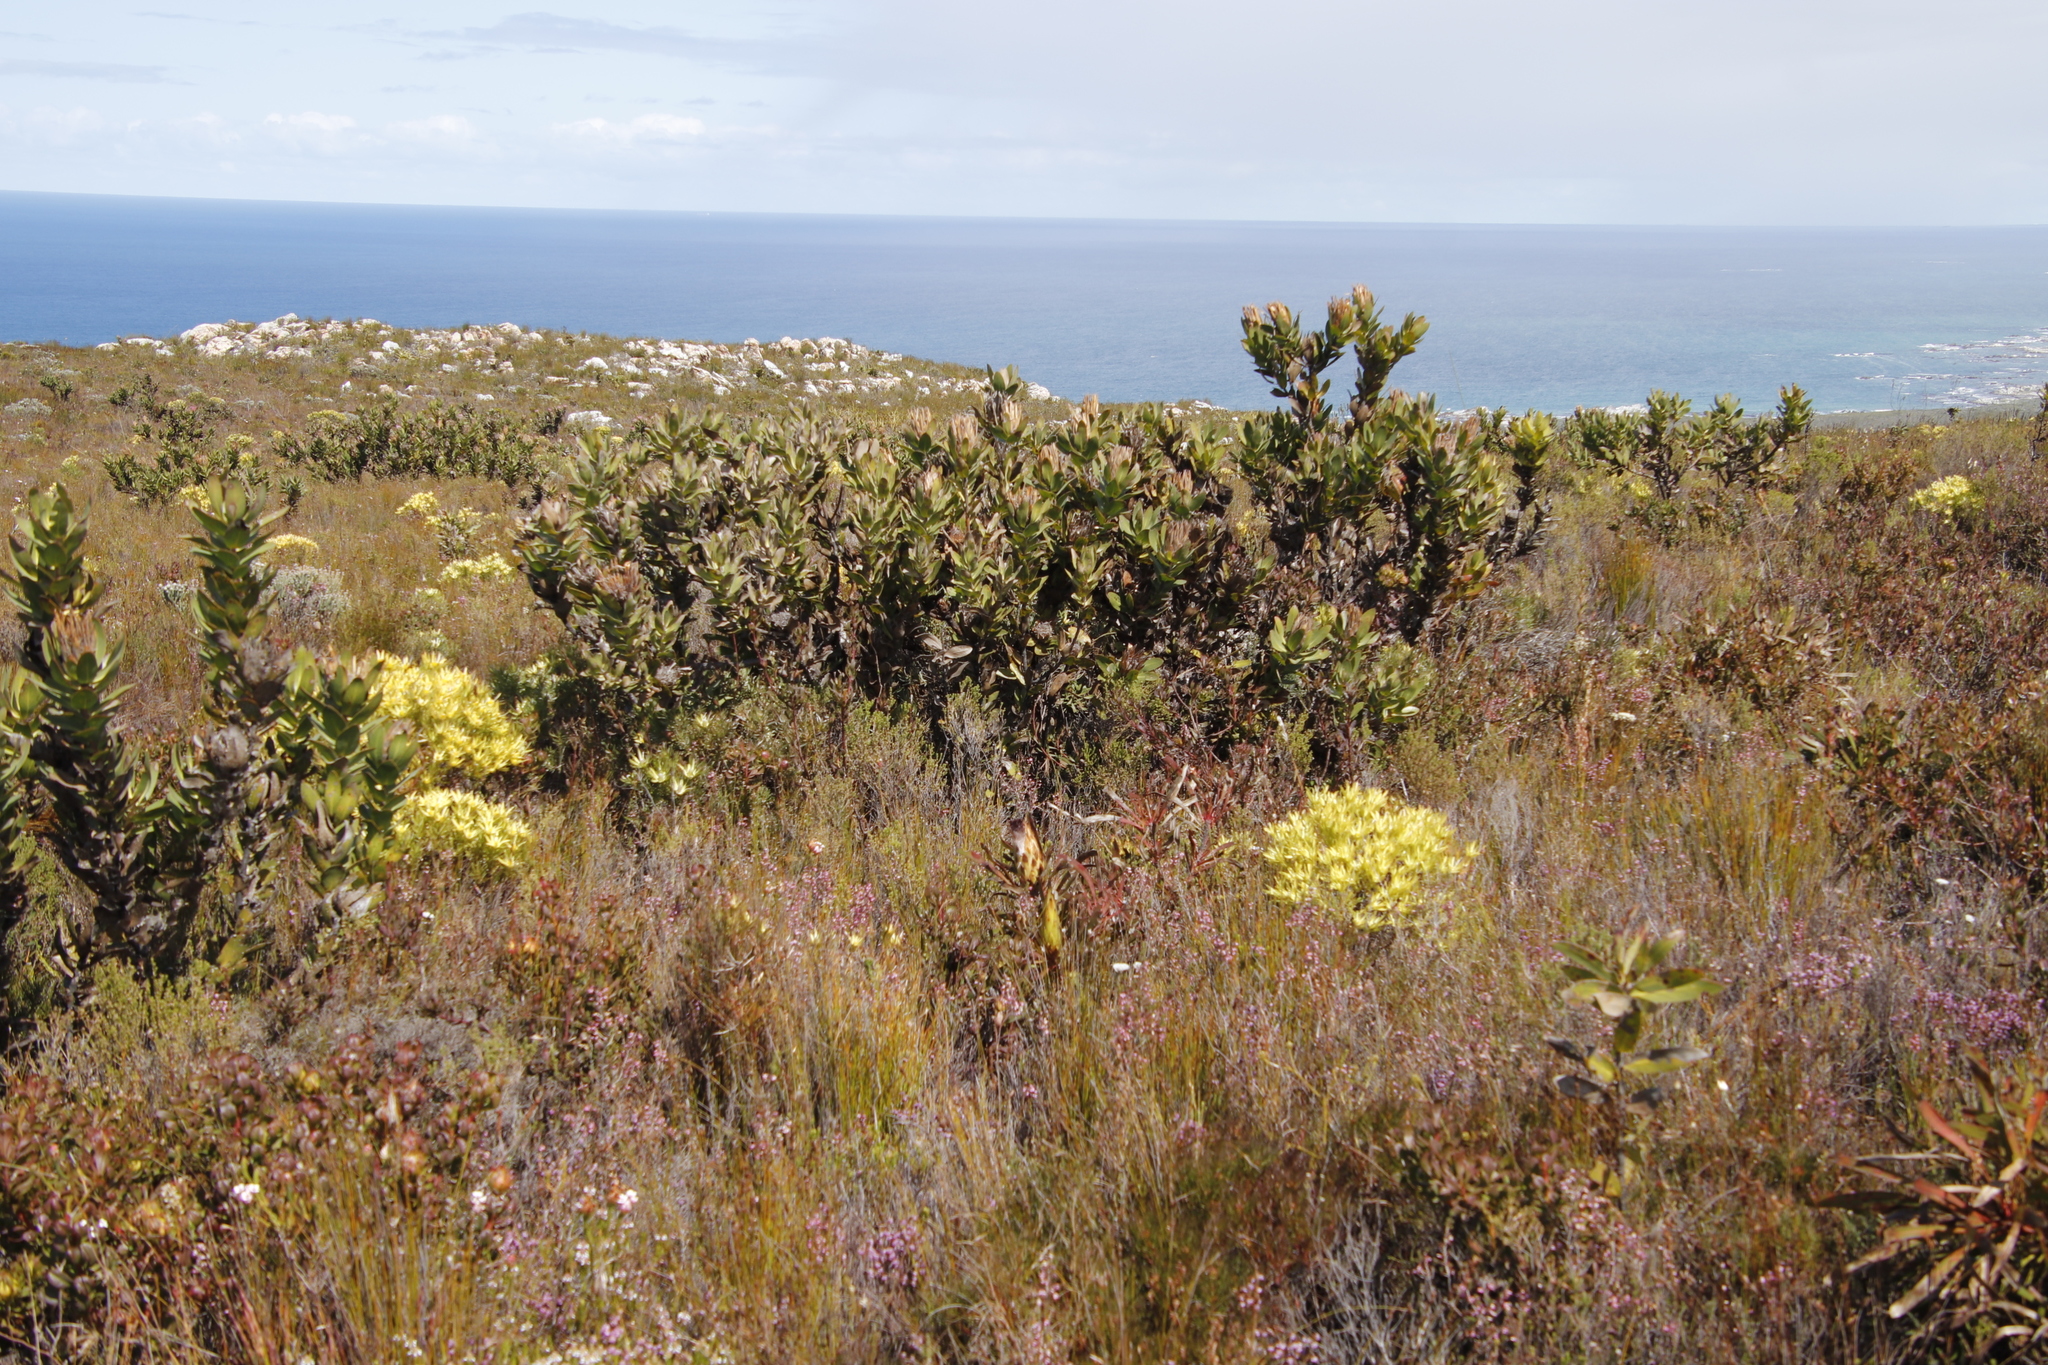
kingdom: Plantae
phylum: Tracheophyta
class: Magnoliopsida
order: Proteales
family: Proteaceae
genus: Protea
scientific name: Protea compacta
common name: Bot river protea
